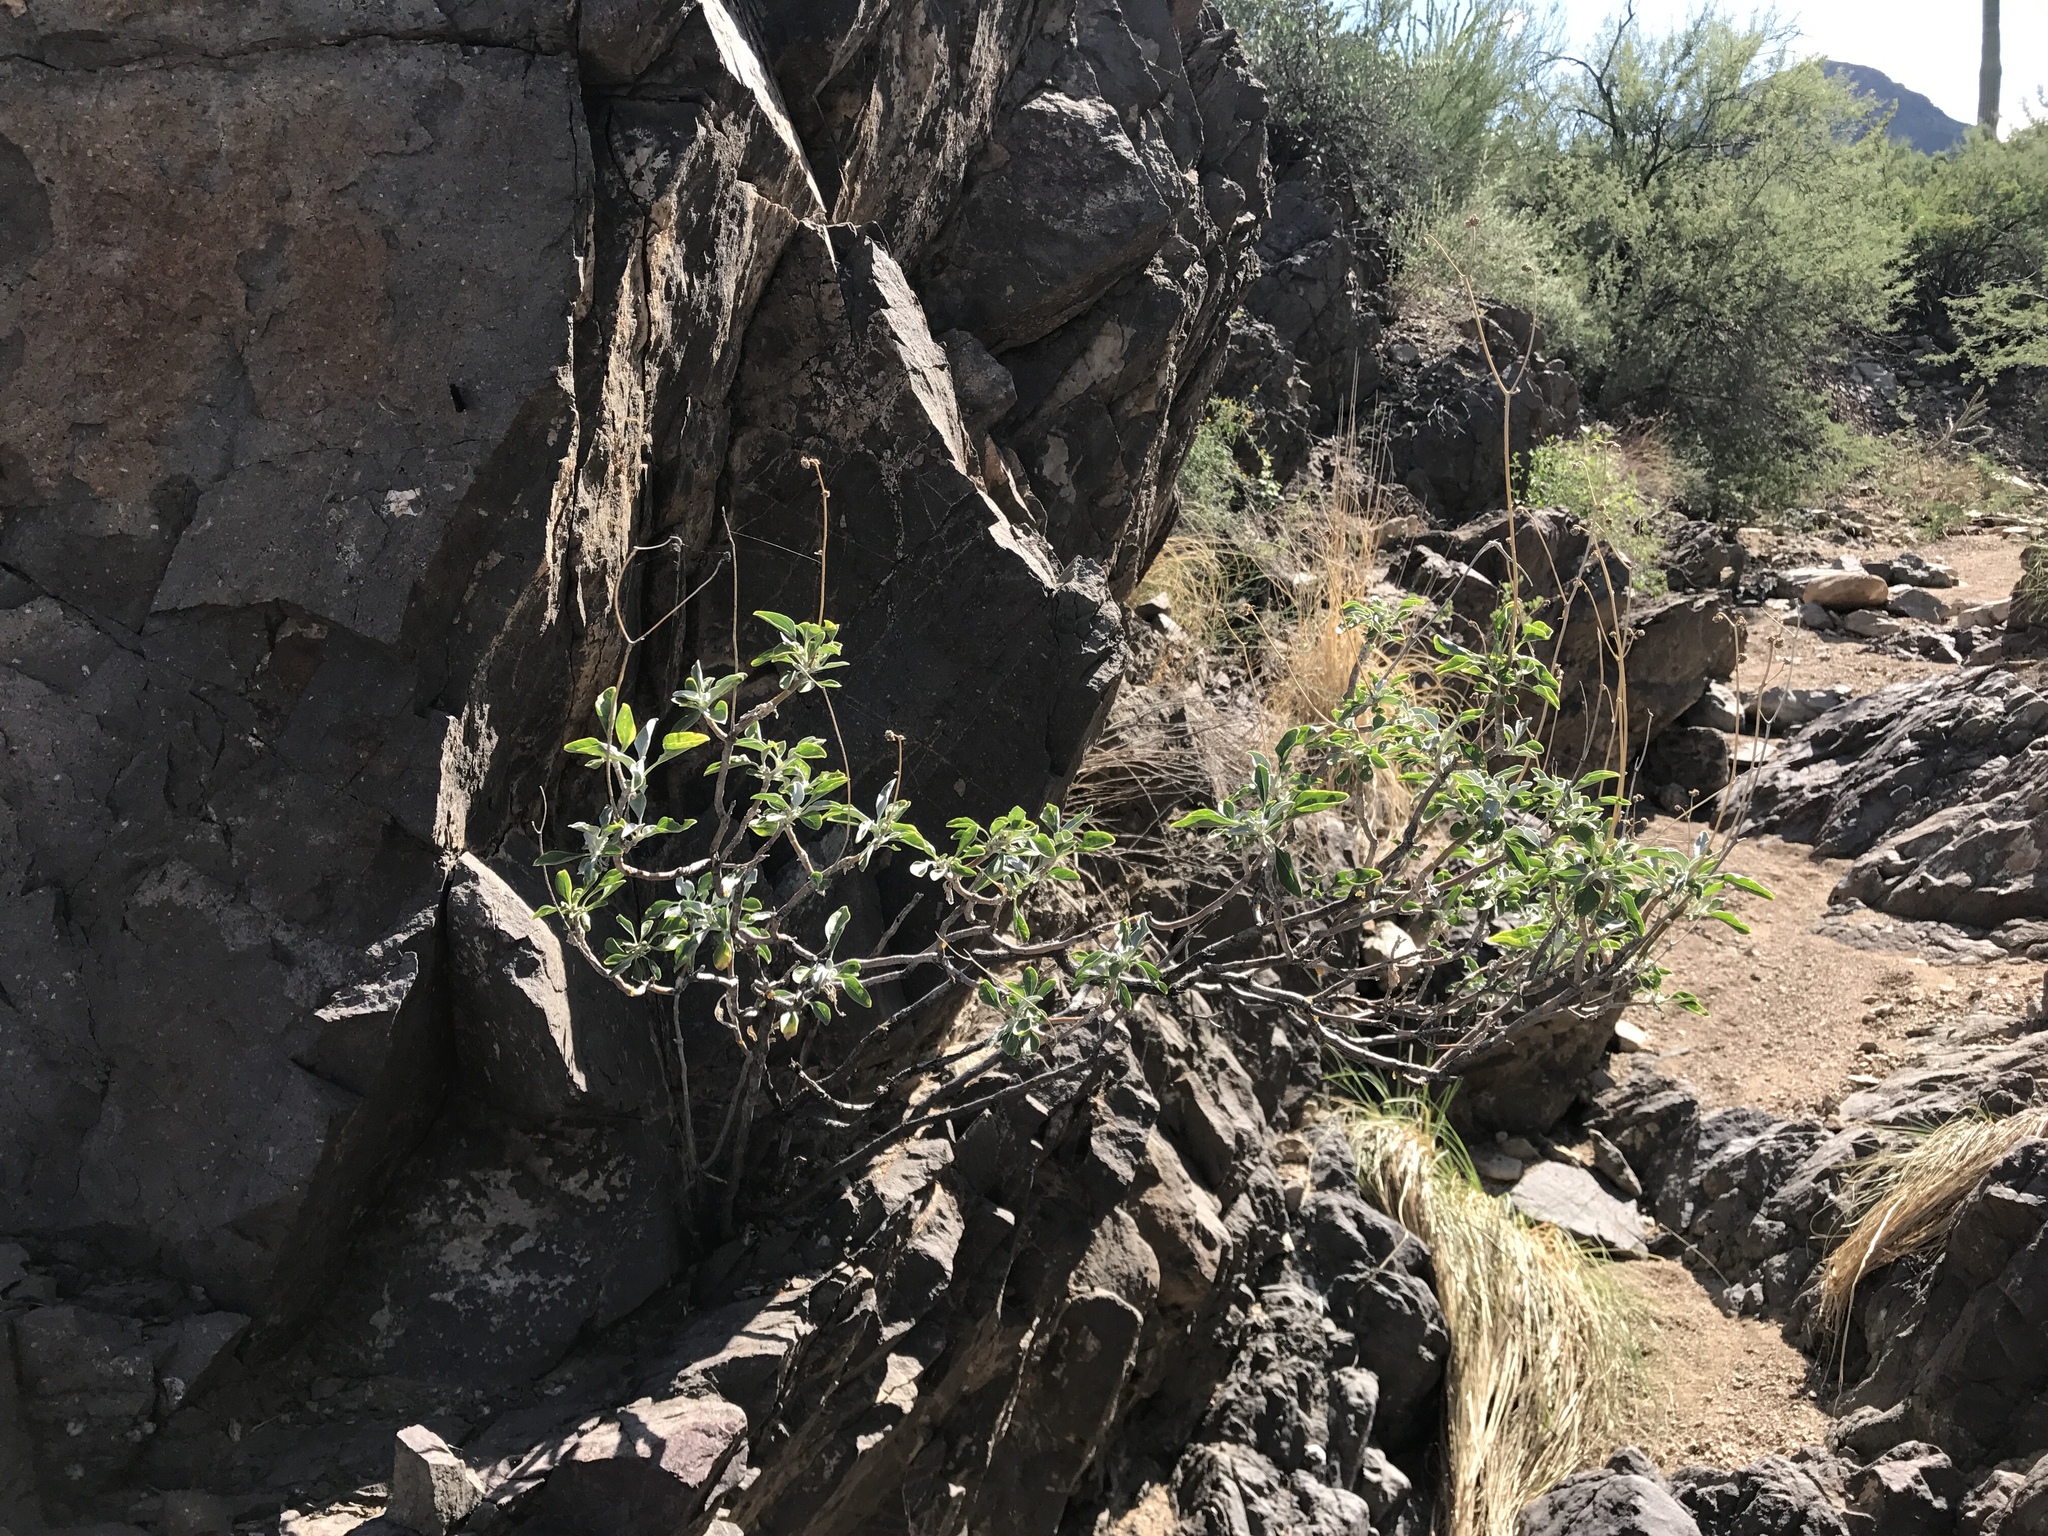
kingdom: Plantae
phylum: Tracheophyta
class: Magnoliopsida
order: Asterales
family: Asteraceae
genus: Encelia
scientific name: Encelia farinosa
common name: Brittlebush
